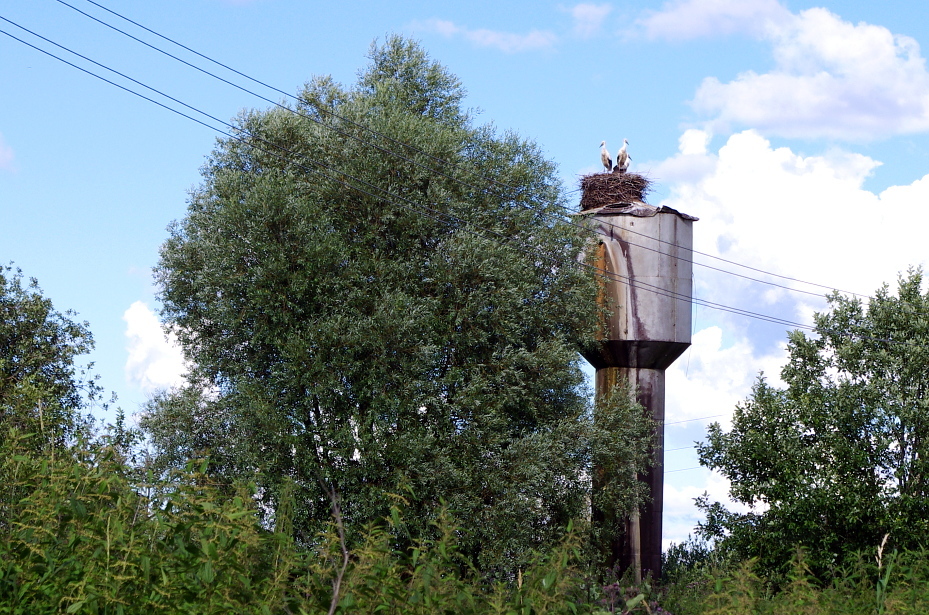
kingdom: Plantae
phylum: Tracheophyta
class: Magnoliopsida
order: Malpighiales
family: Salicaceae
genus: Salix
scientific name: Salix alba
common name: White willow
